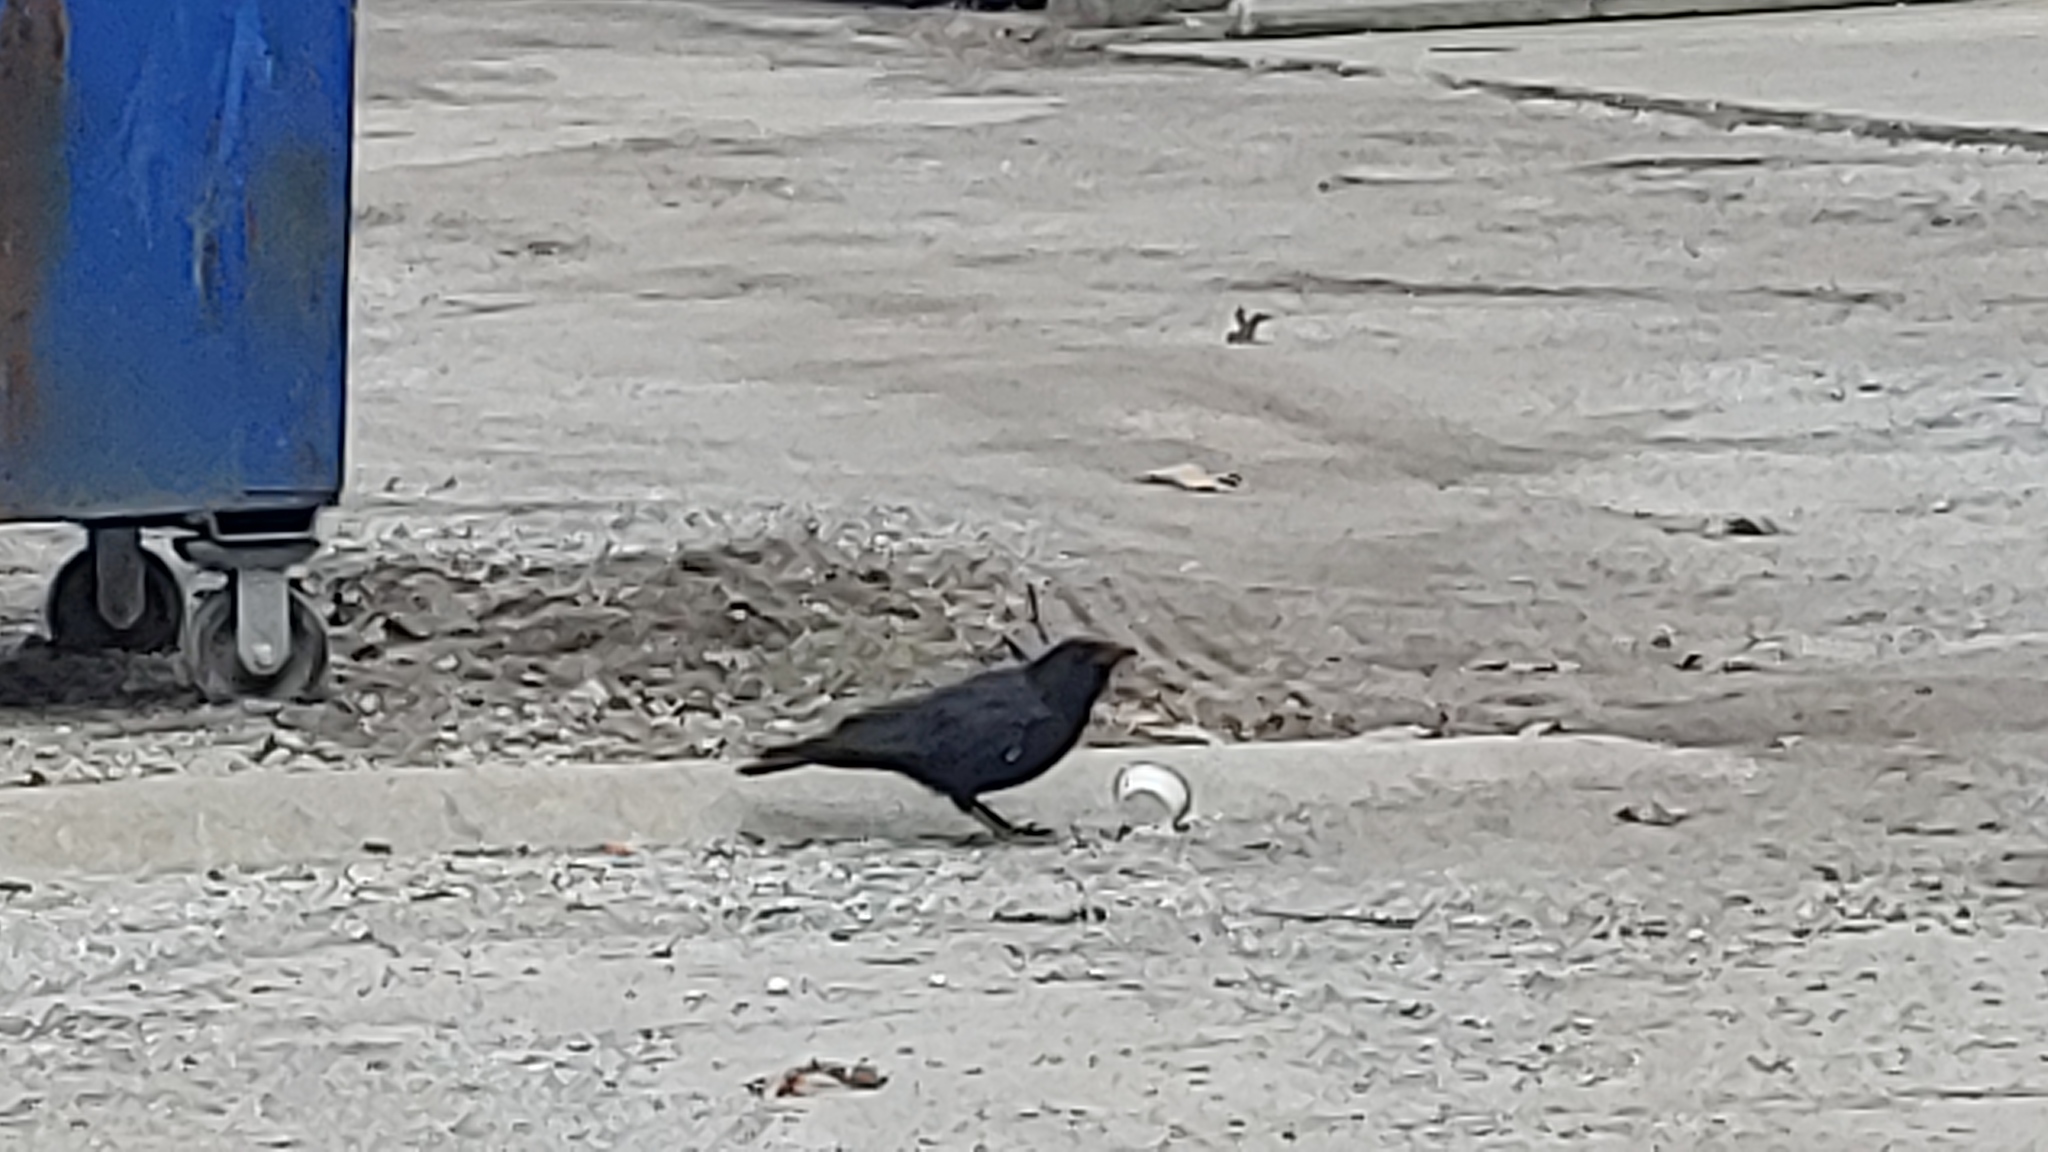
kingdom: Animalia
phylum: Chordata
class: Aves
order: Passeriformes
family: Corvidae
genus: Corvus
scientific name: Corvus brachyrhynchos
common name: American crow
